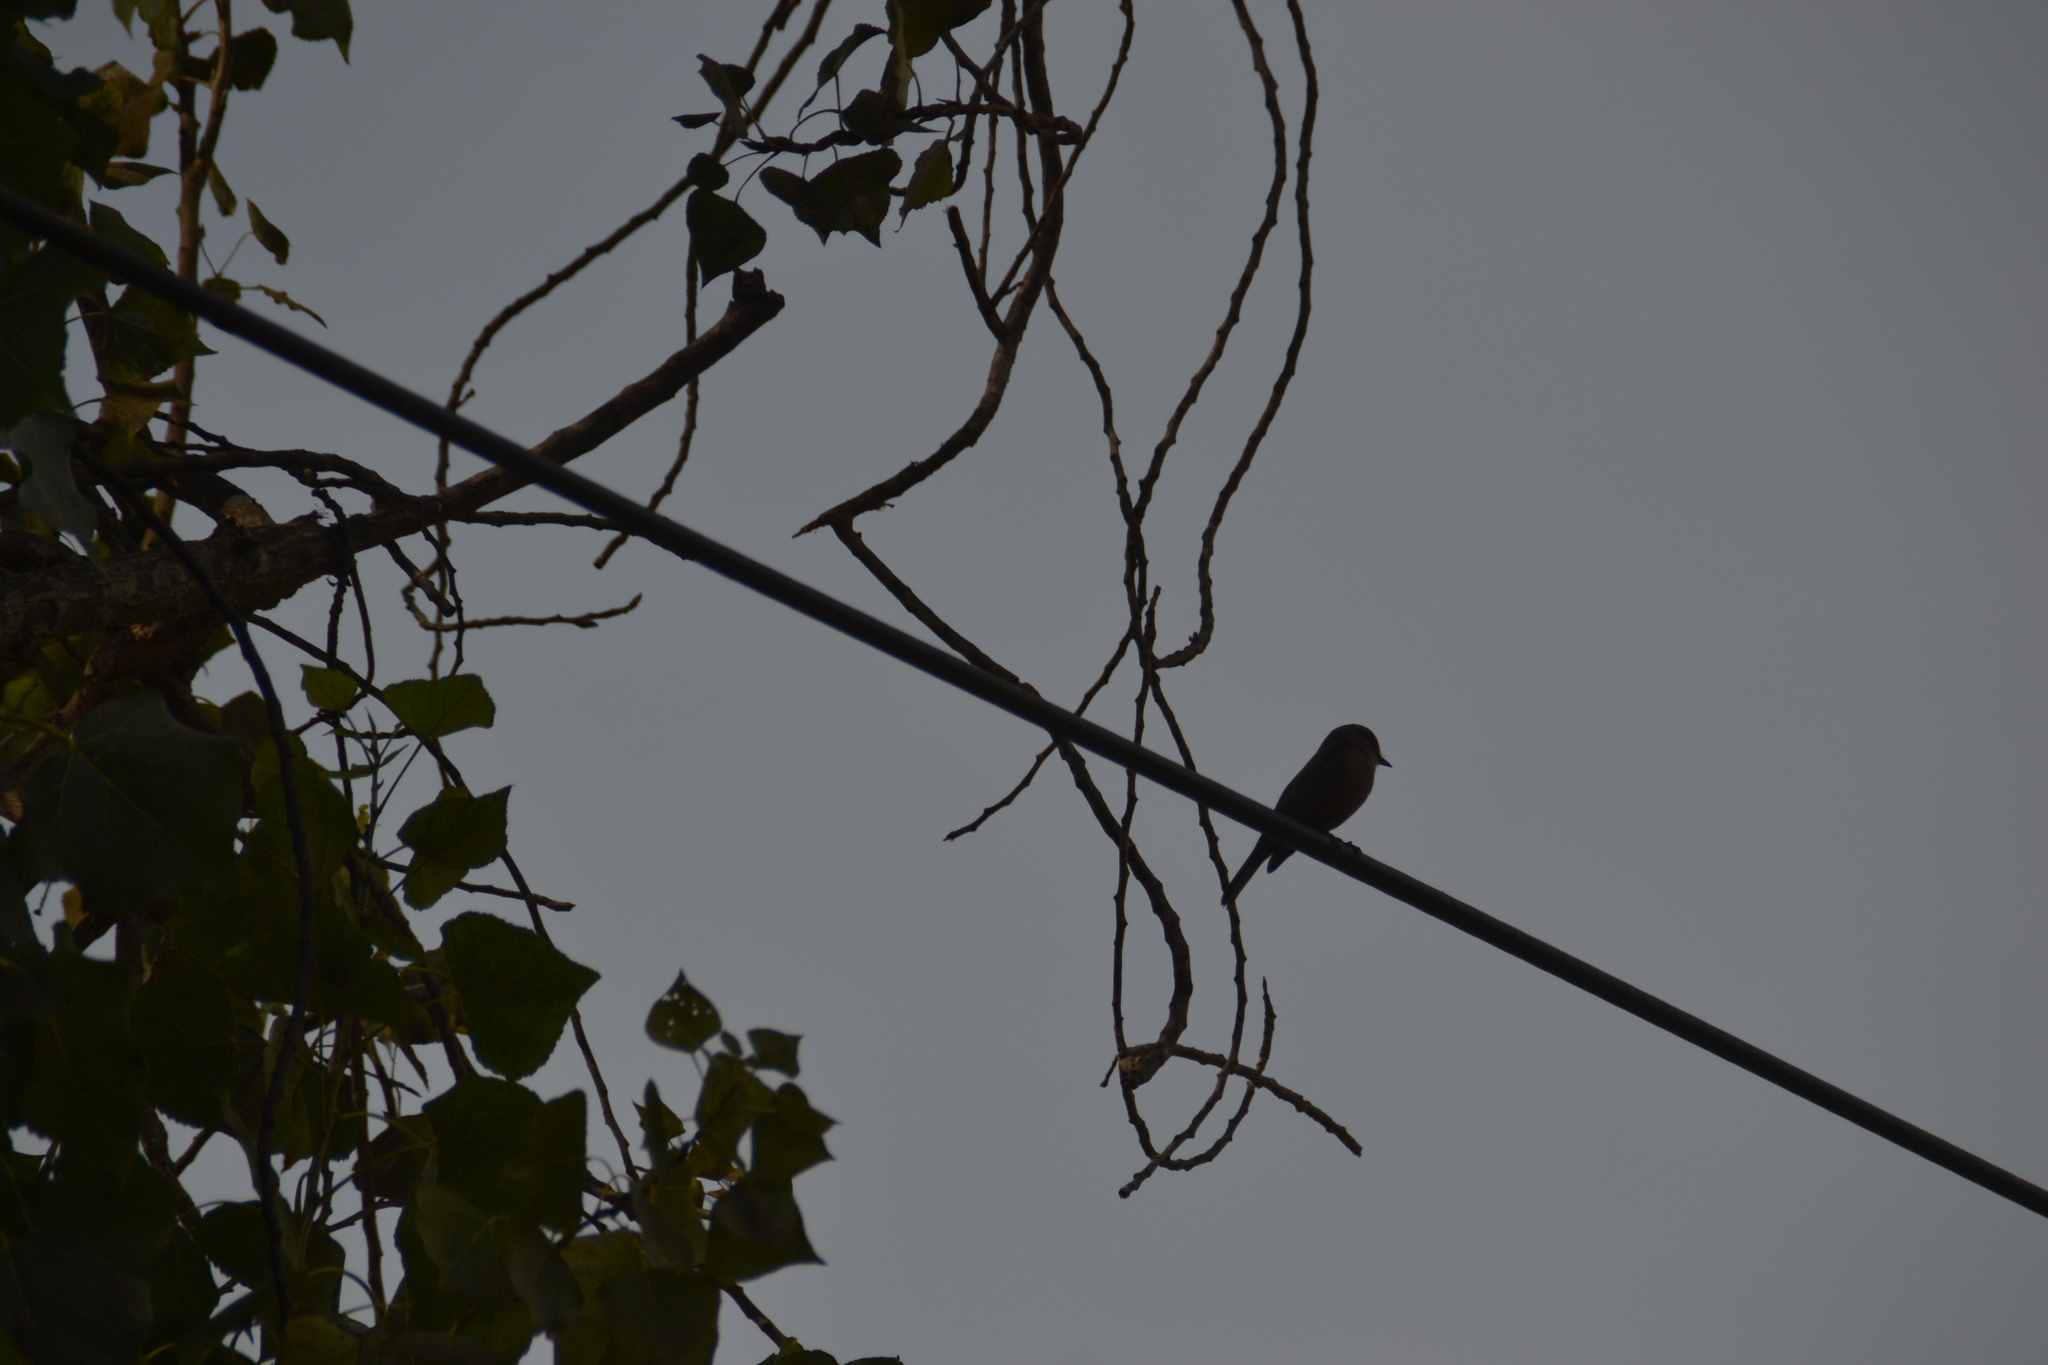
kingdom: Animalia
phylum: Chordata
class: Aves
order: Passeriformes
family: Tyrannidae
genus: Pyrocephalus
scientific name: Pyrocephalus rubinus
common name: Vermilion flycatcher
